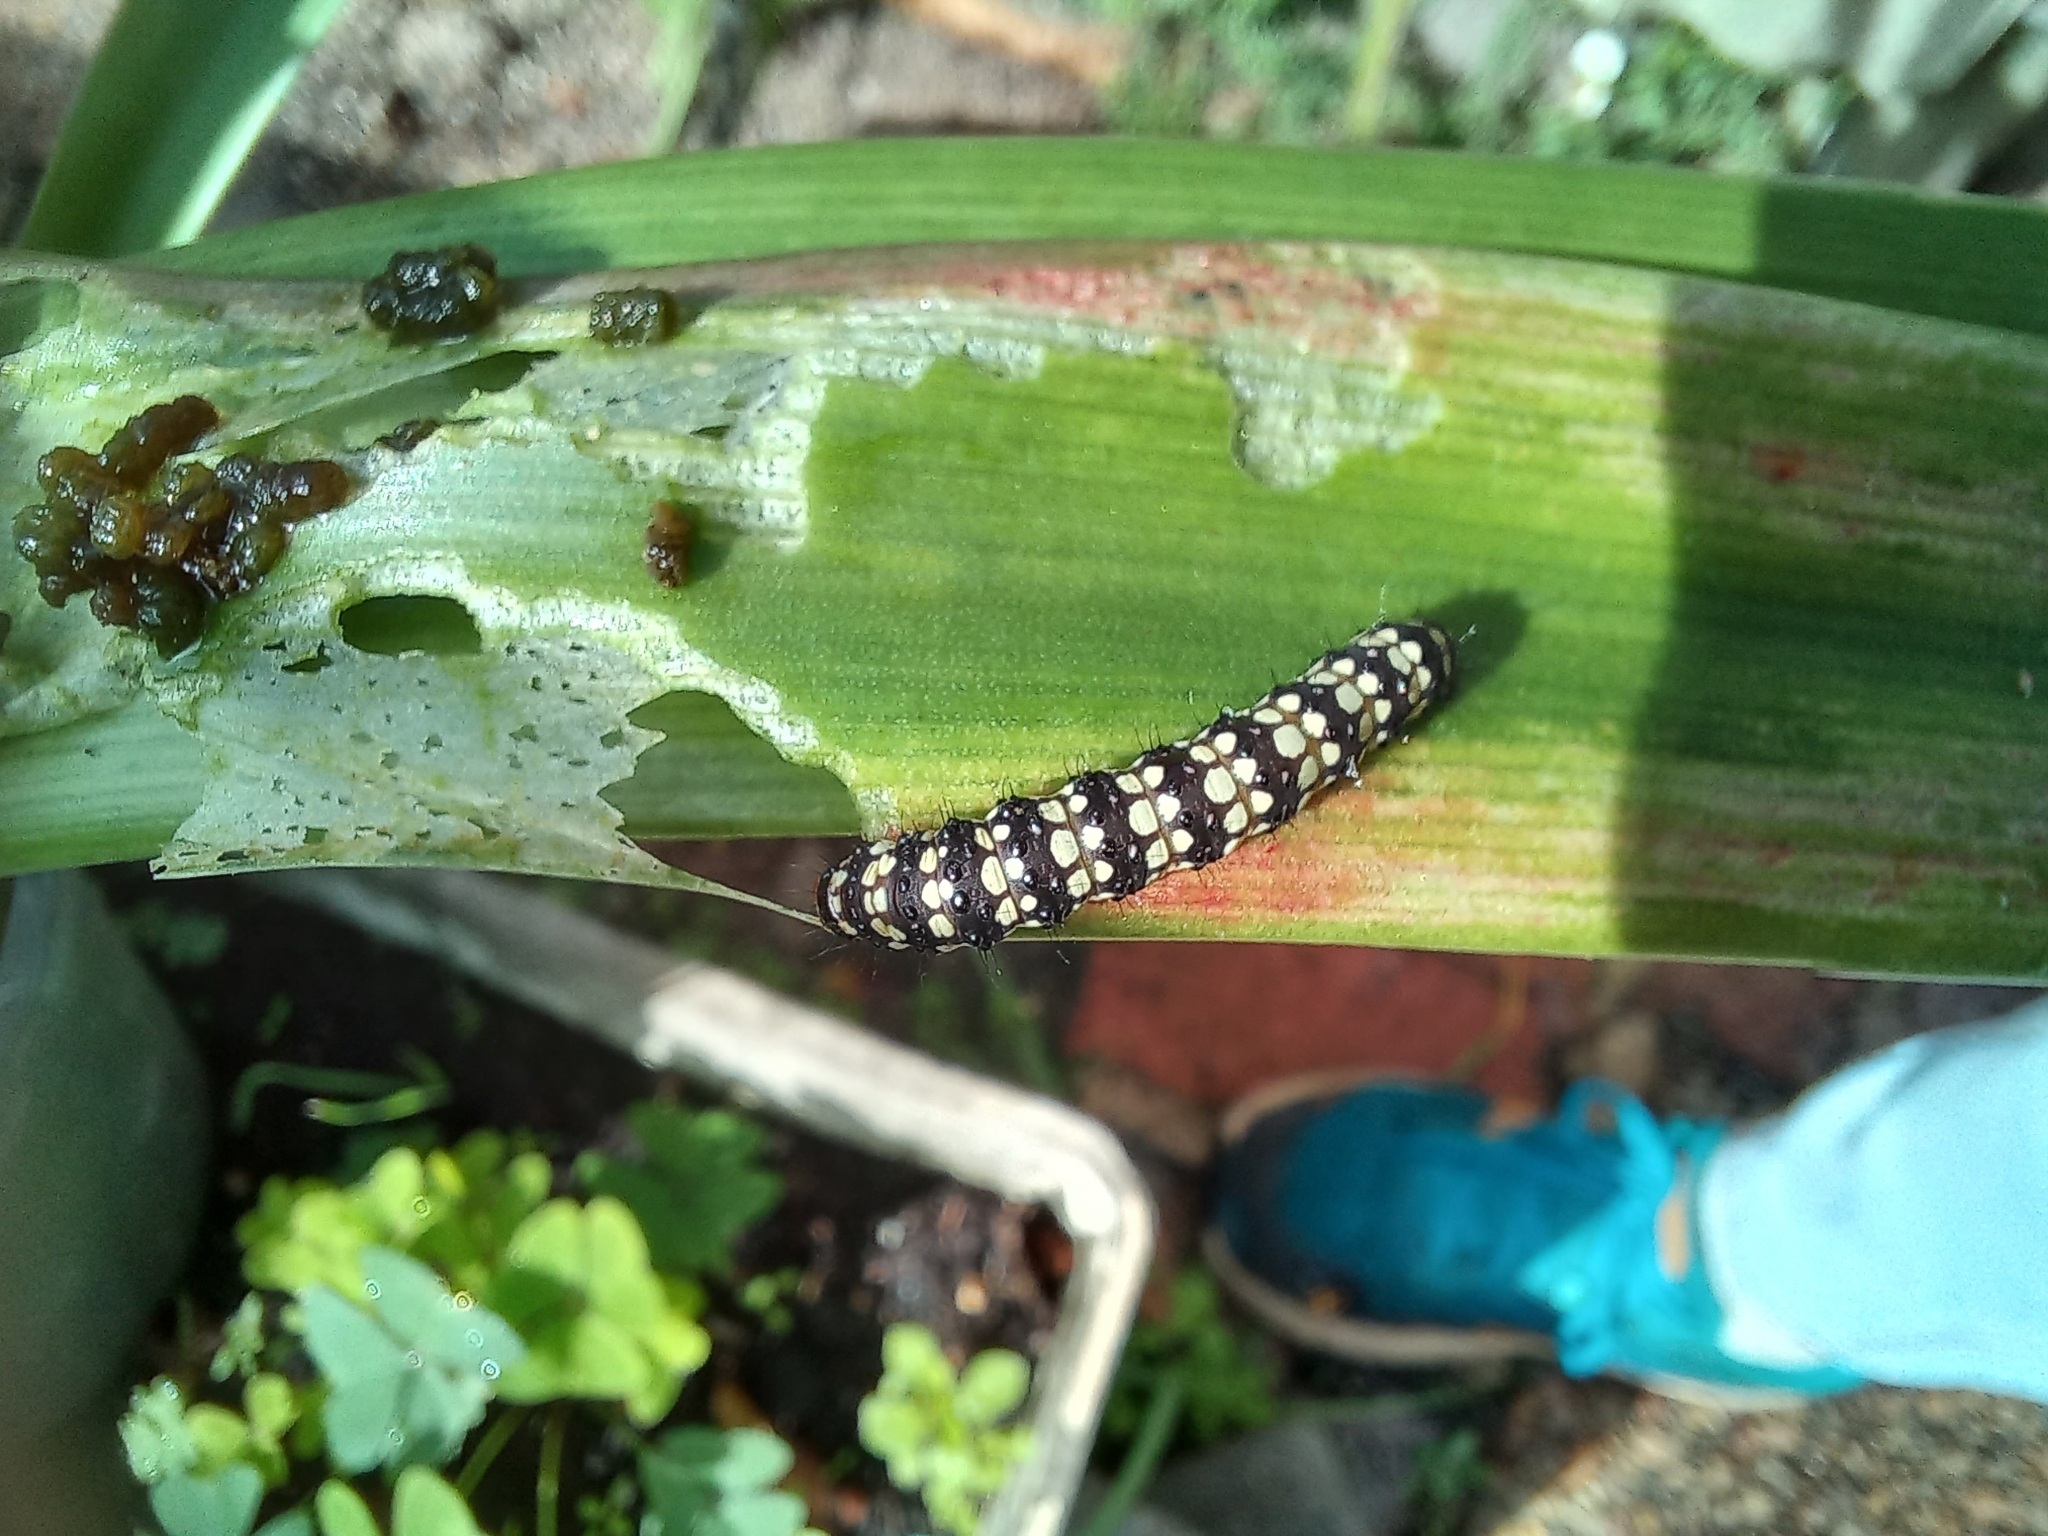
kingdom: Animalia
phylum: Arthropoda
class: Insecta
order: Lepidoptera
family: Noctuidae
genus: Brithys
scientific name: Brithys crini
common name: Kew arches
